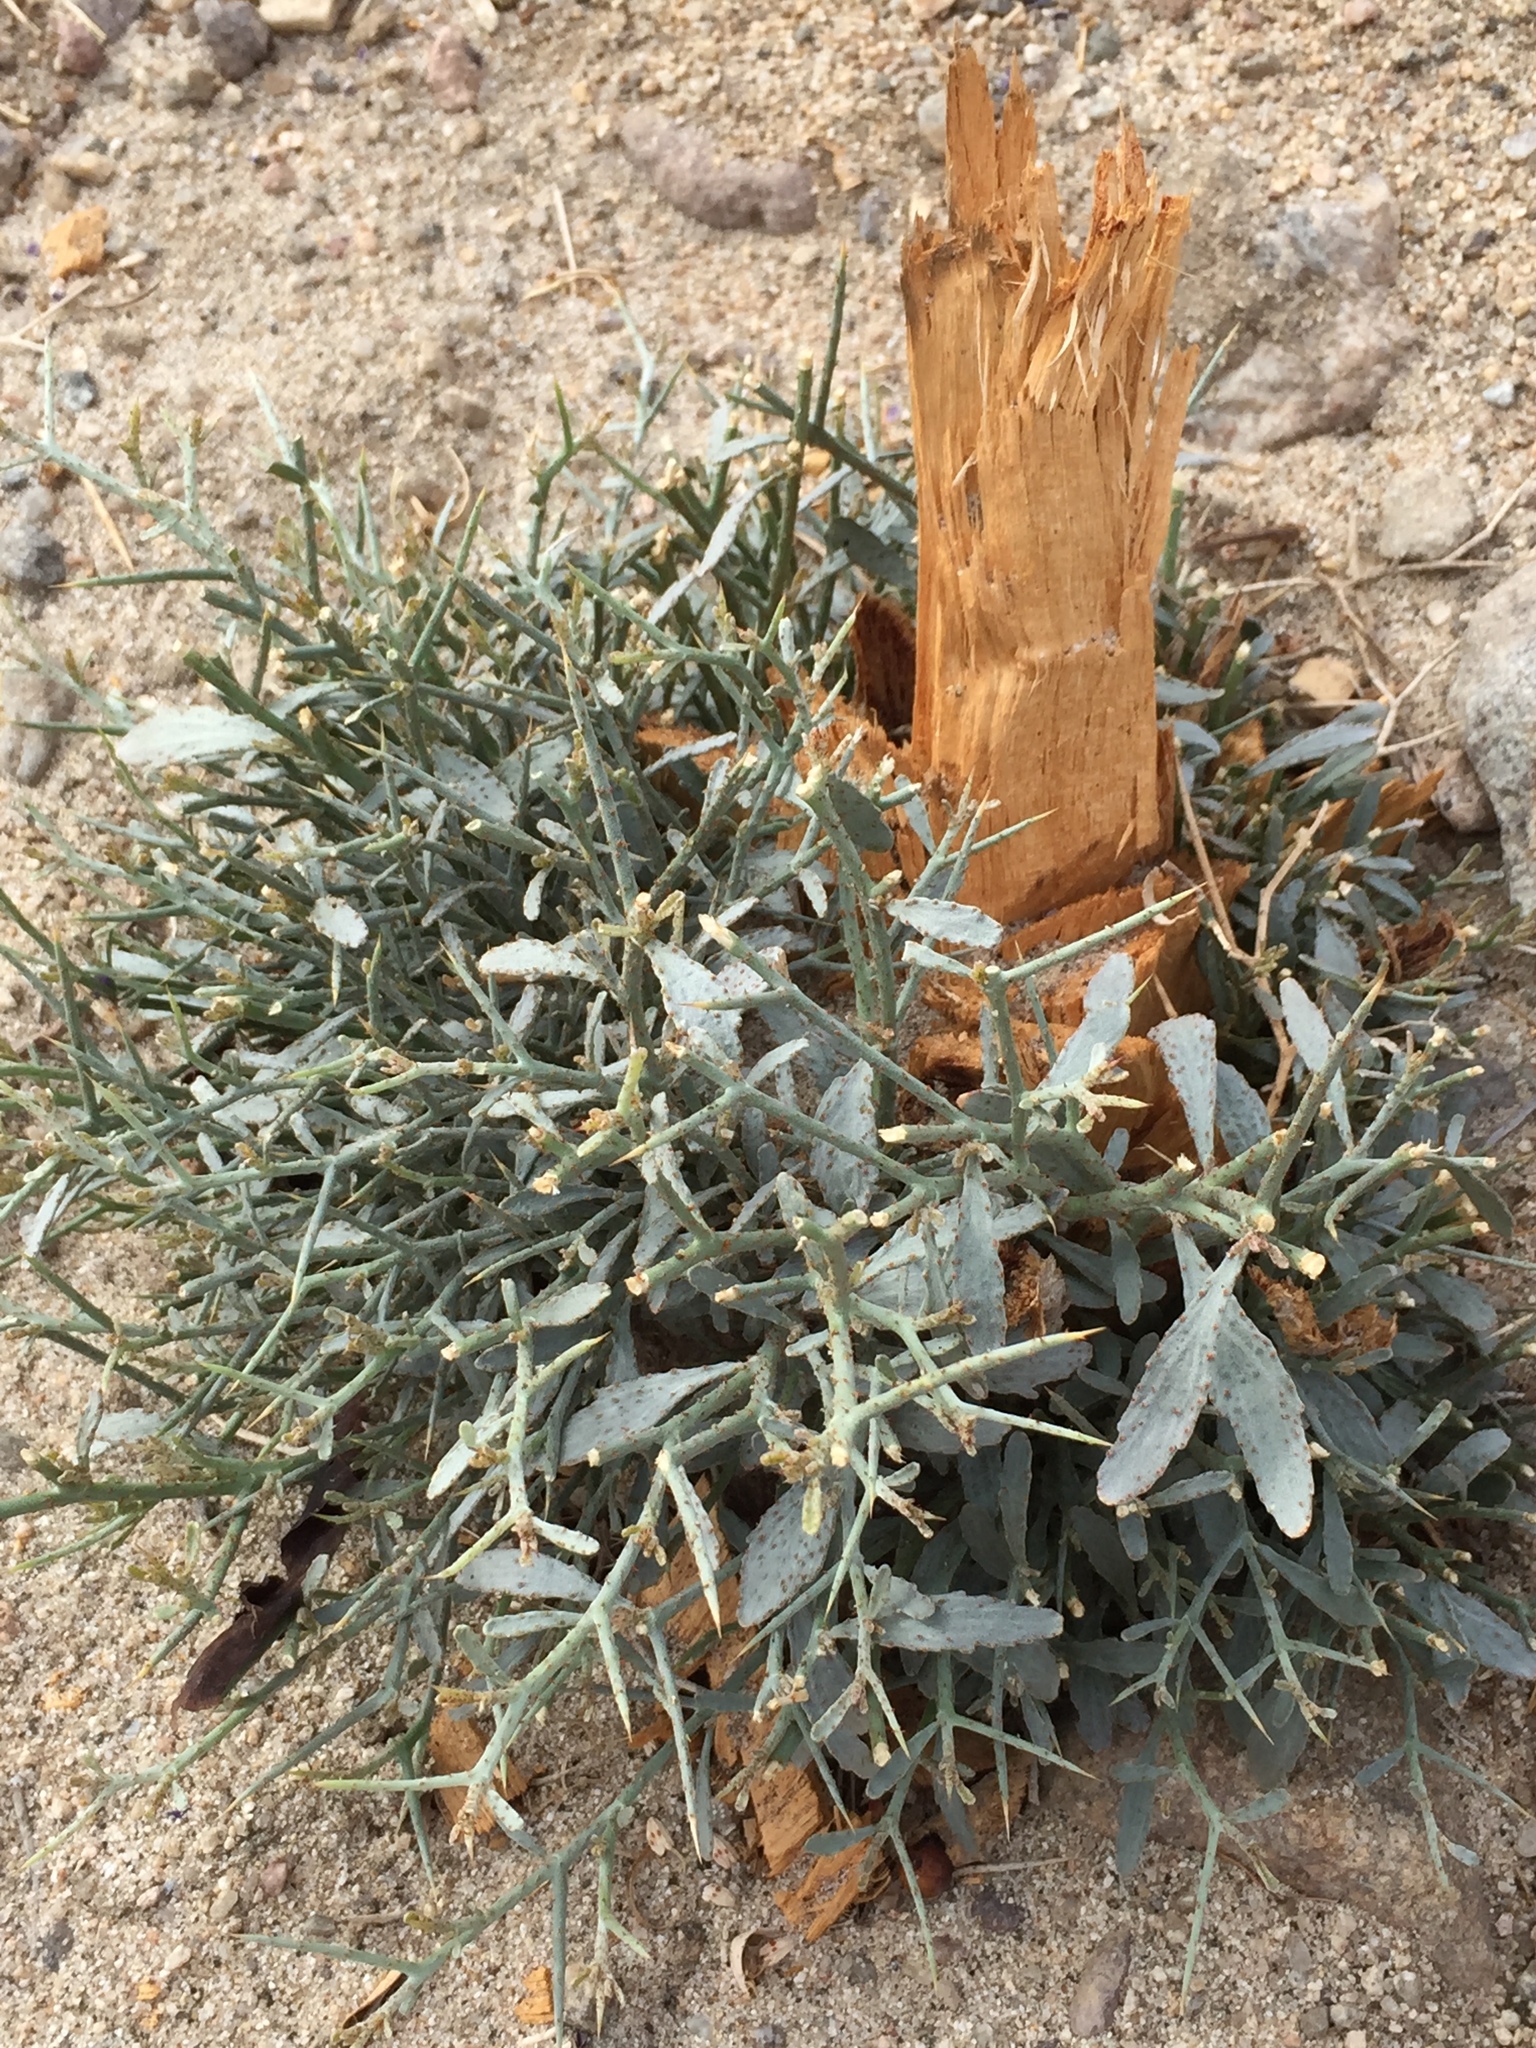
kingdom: Plantae
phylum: Tracheophyta
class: Magnoliopsida
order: Fabales
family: Fabaceae
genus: Psorothamnus
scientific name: Psorothamnus spinosus
